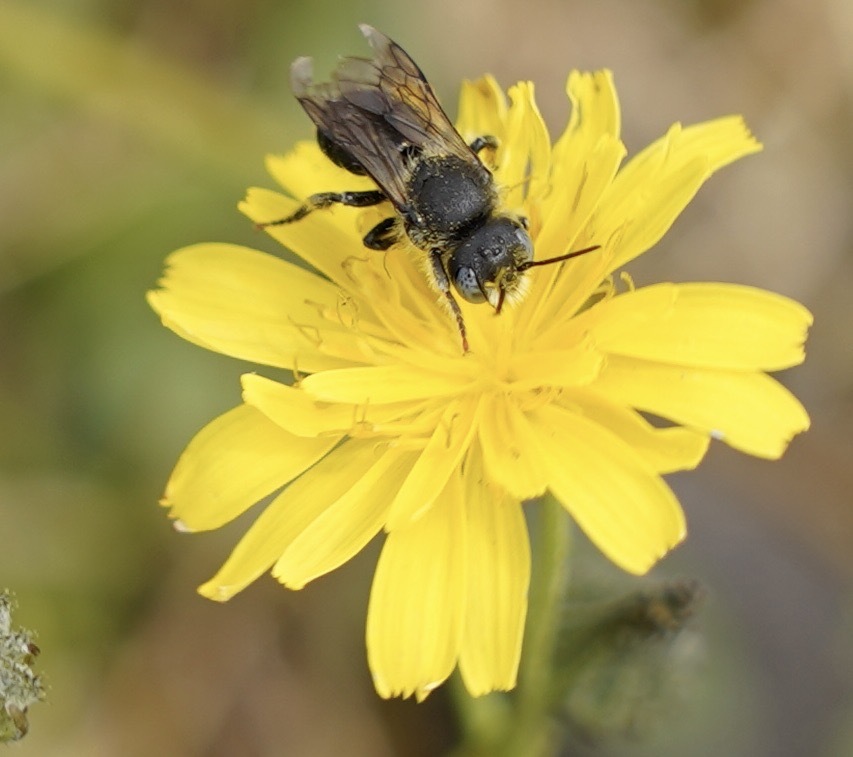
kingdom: Animalia
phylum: Arthropoda
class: Insecta
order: Hymenoptera
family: Megachilidae
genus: Osmia
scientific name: Osmia spinulosa
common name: Spined mason bee
